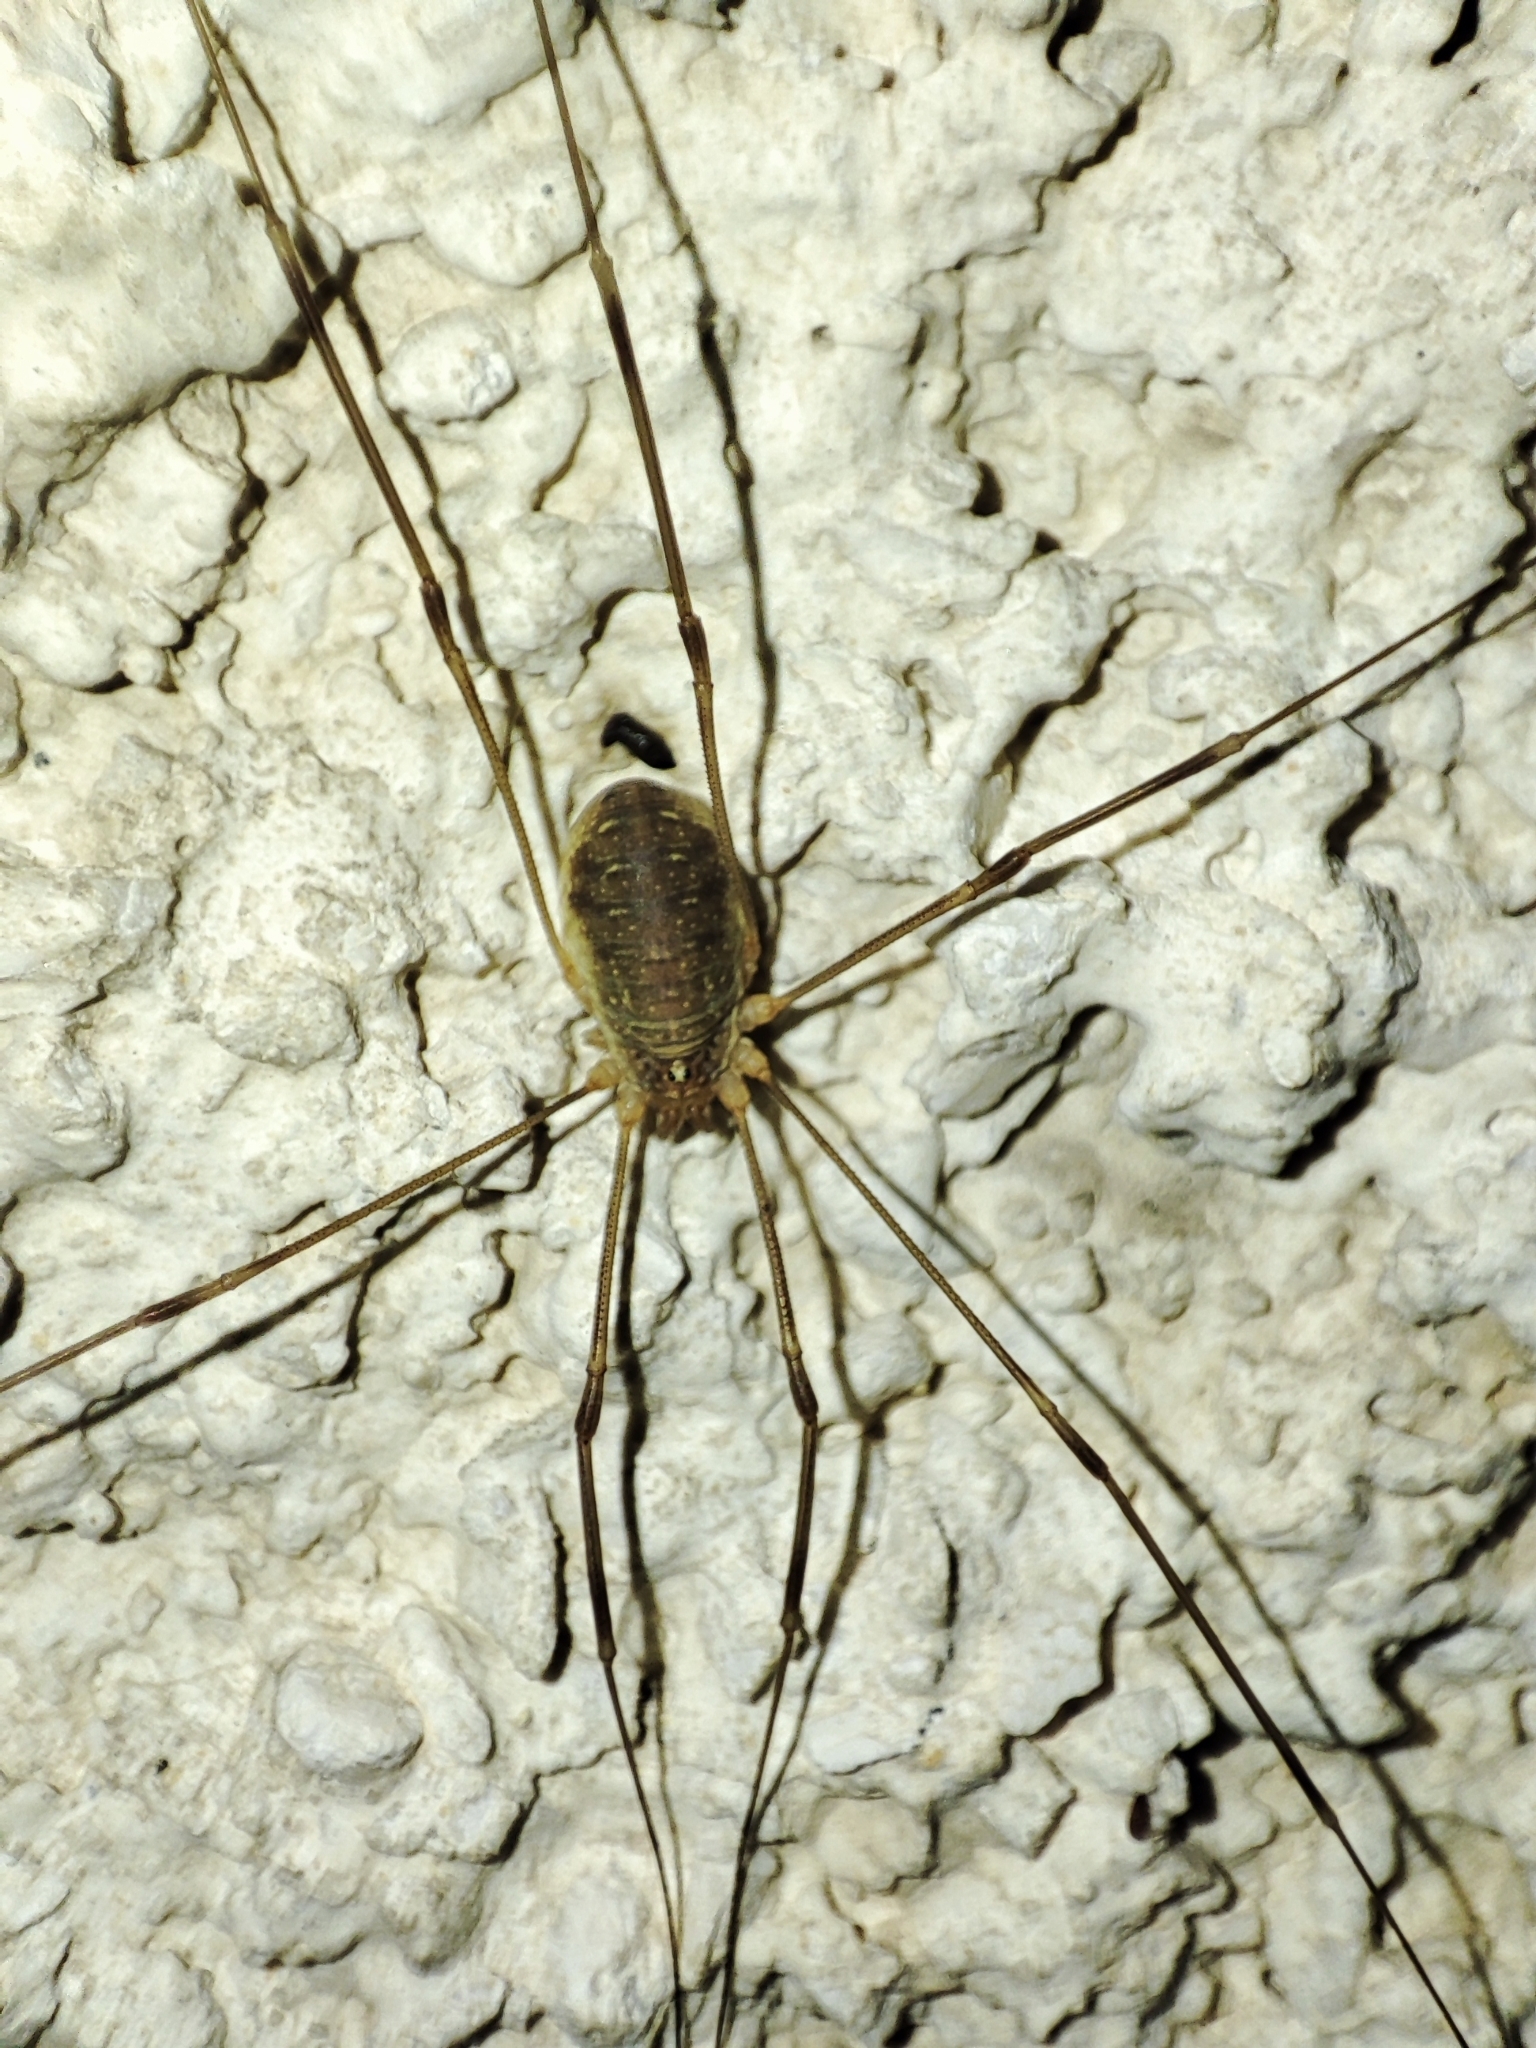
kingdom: Animalia
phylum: Arthropoda
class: Arachnida
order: Opiliones
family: Phalangiidae
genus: Opilio
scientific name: Opilio canestrinii
